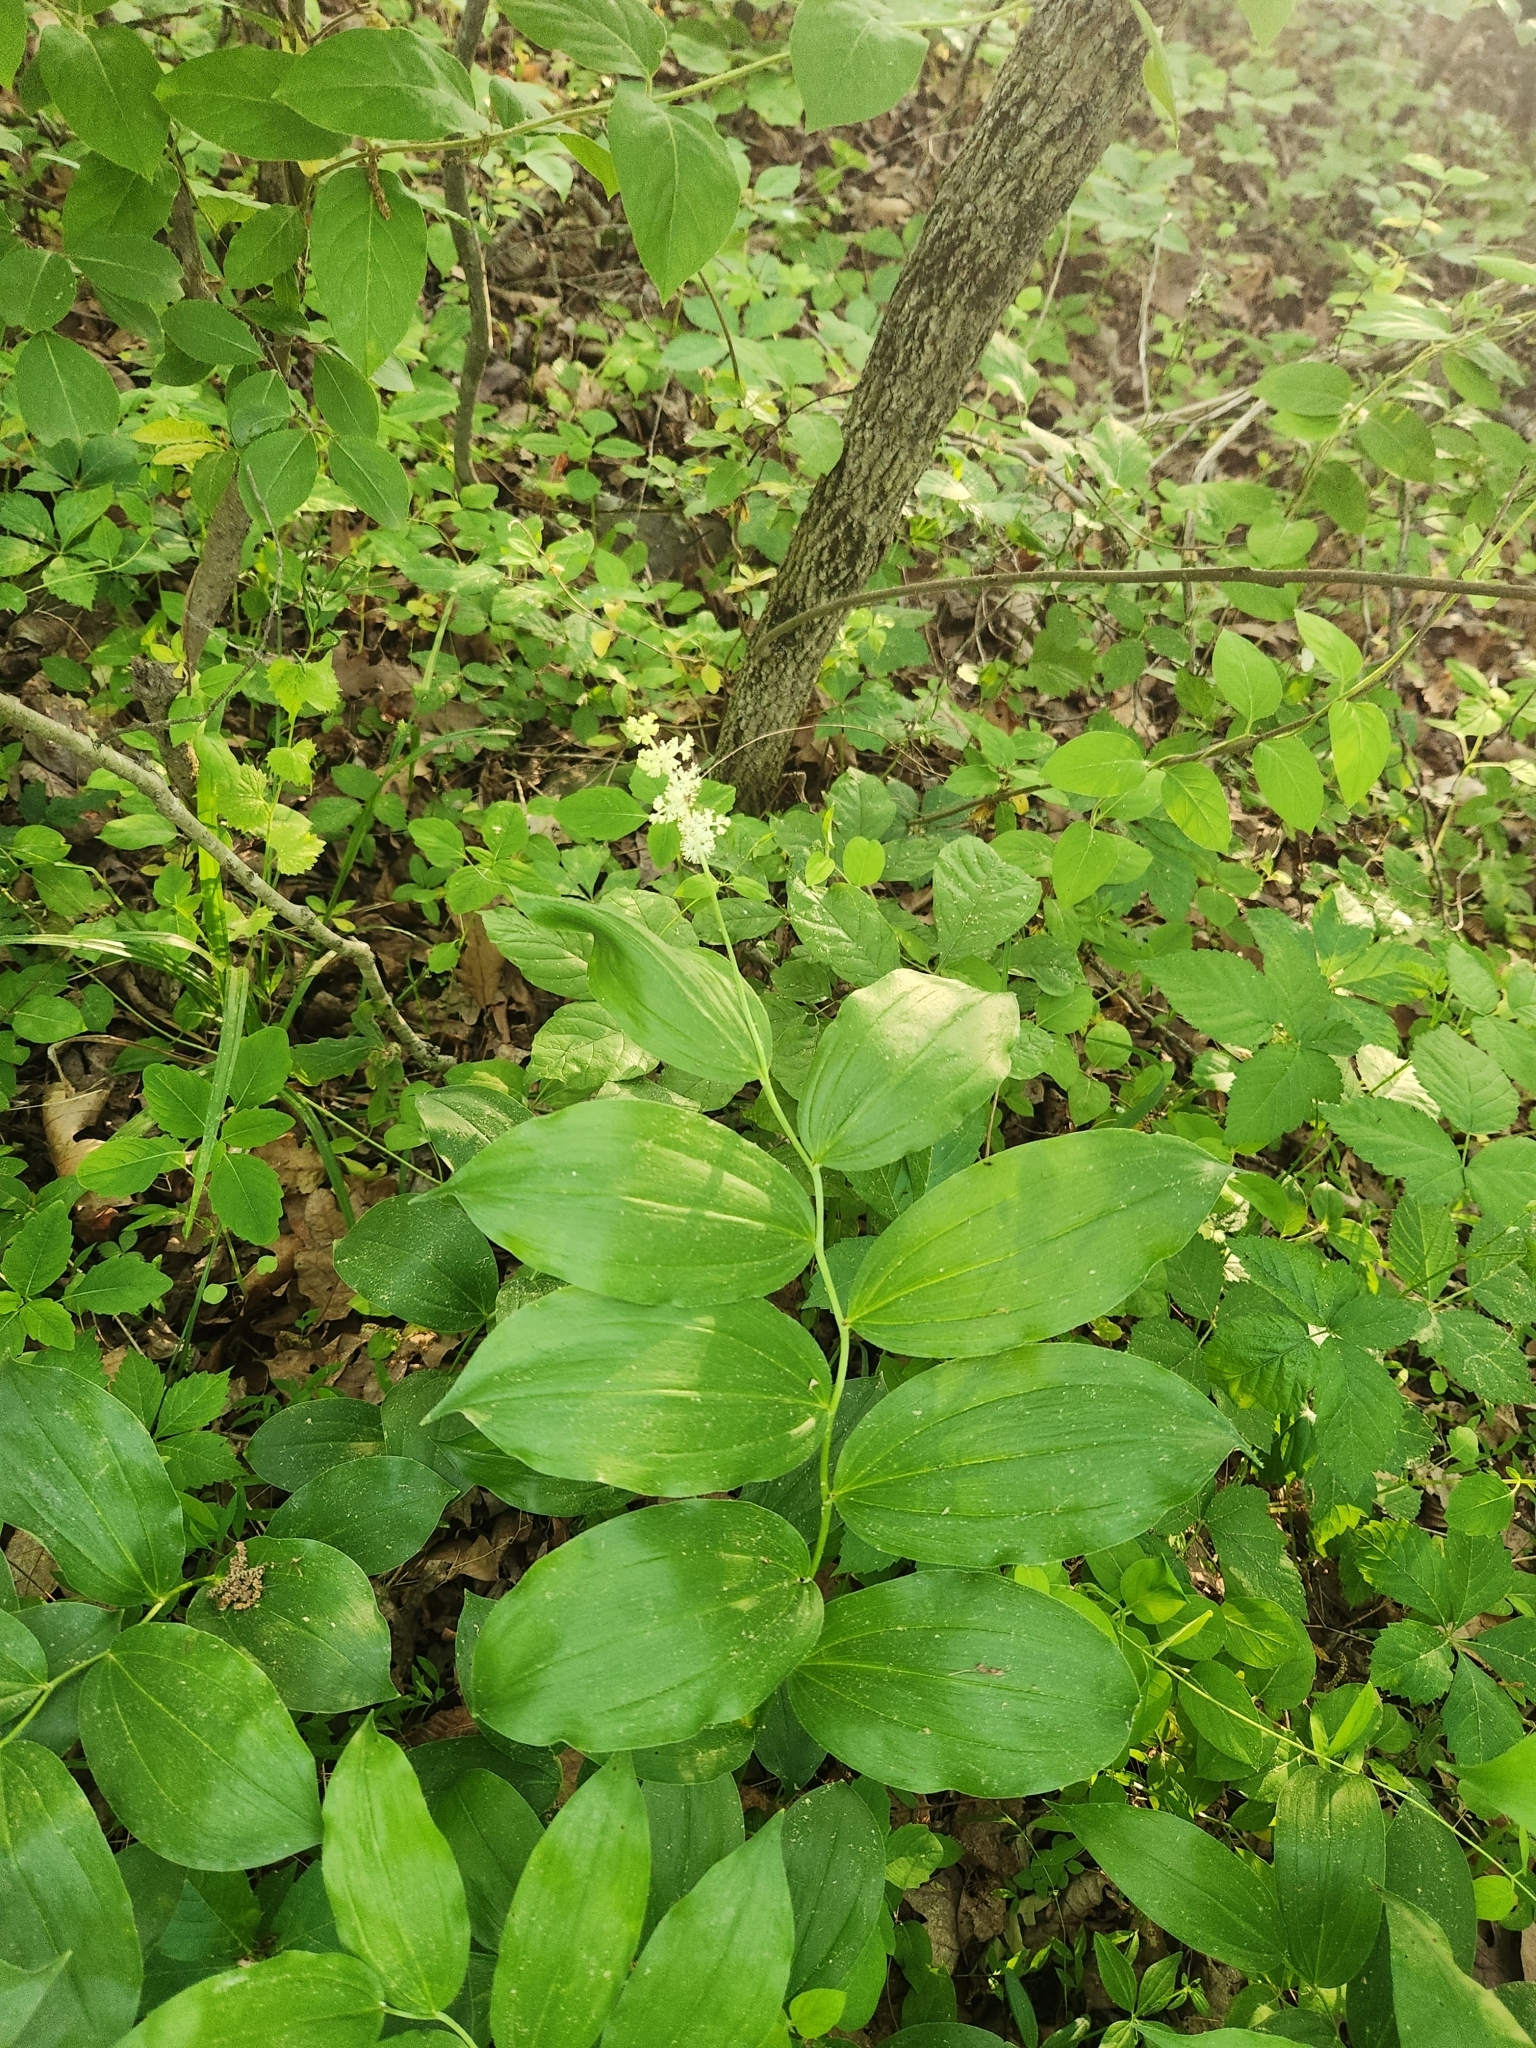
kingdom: Plantae
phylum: Tracheophyta
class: Liliopsida
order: Asparagales
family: Asparagaceae
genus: Maianthemum
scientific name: Maianthemum racemosum
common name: False spikenard
